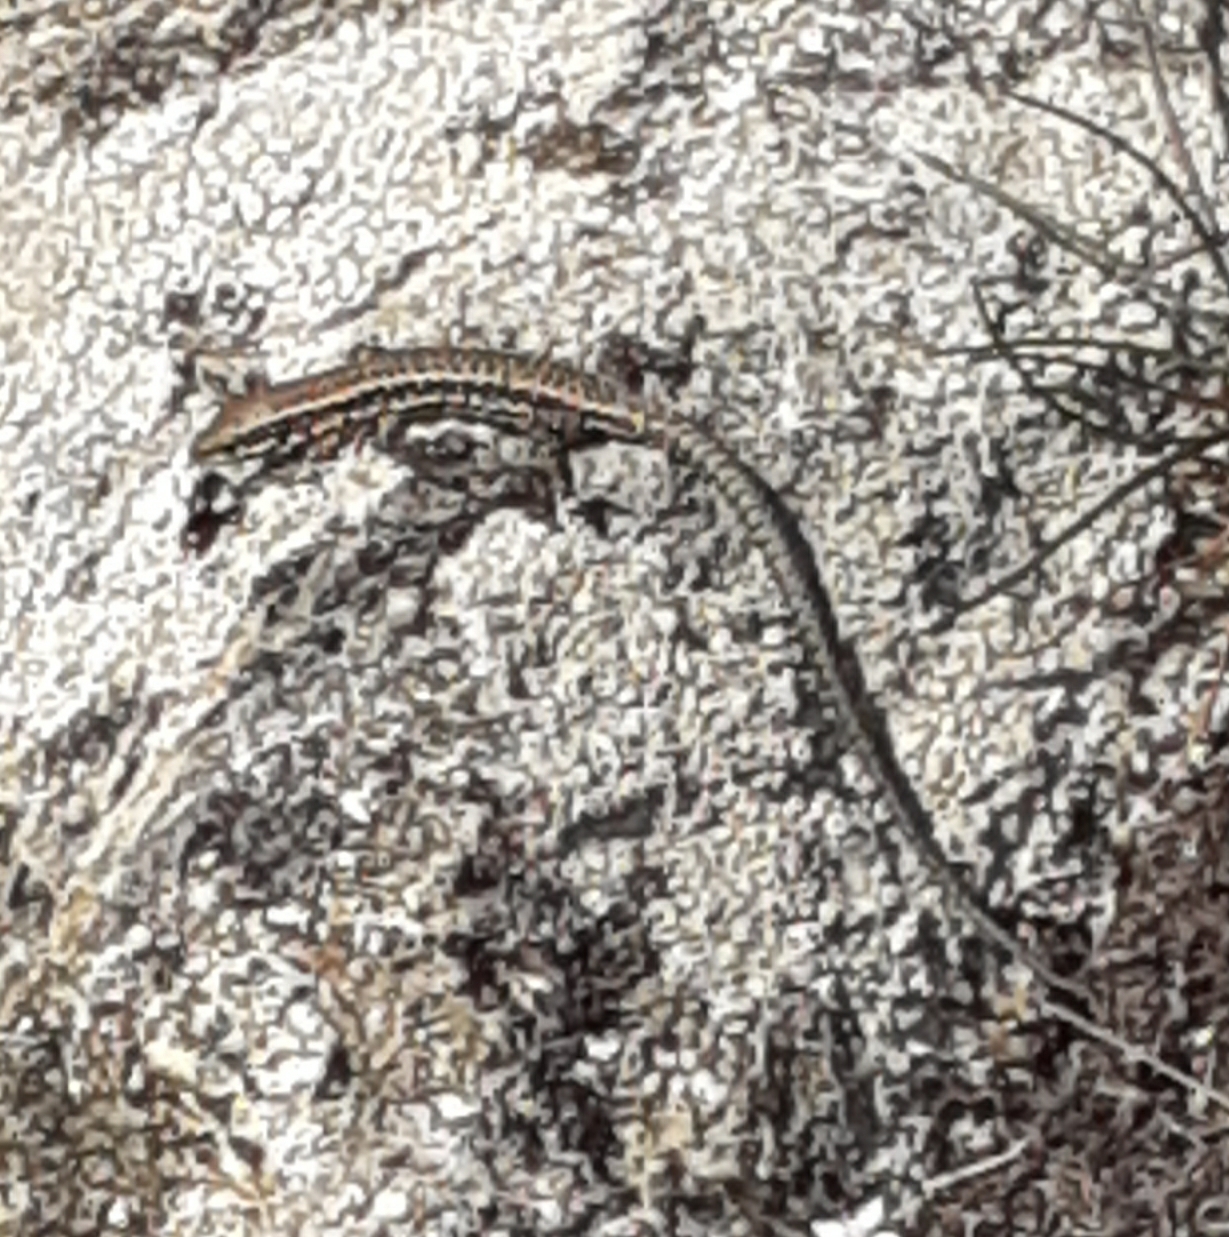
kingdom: Animalia
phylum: Chordata
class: Squamata
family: Lacertidae
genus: Podarcis
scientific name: Podarcis muralis
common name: Common wall lizard
